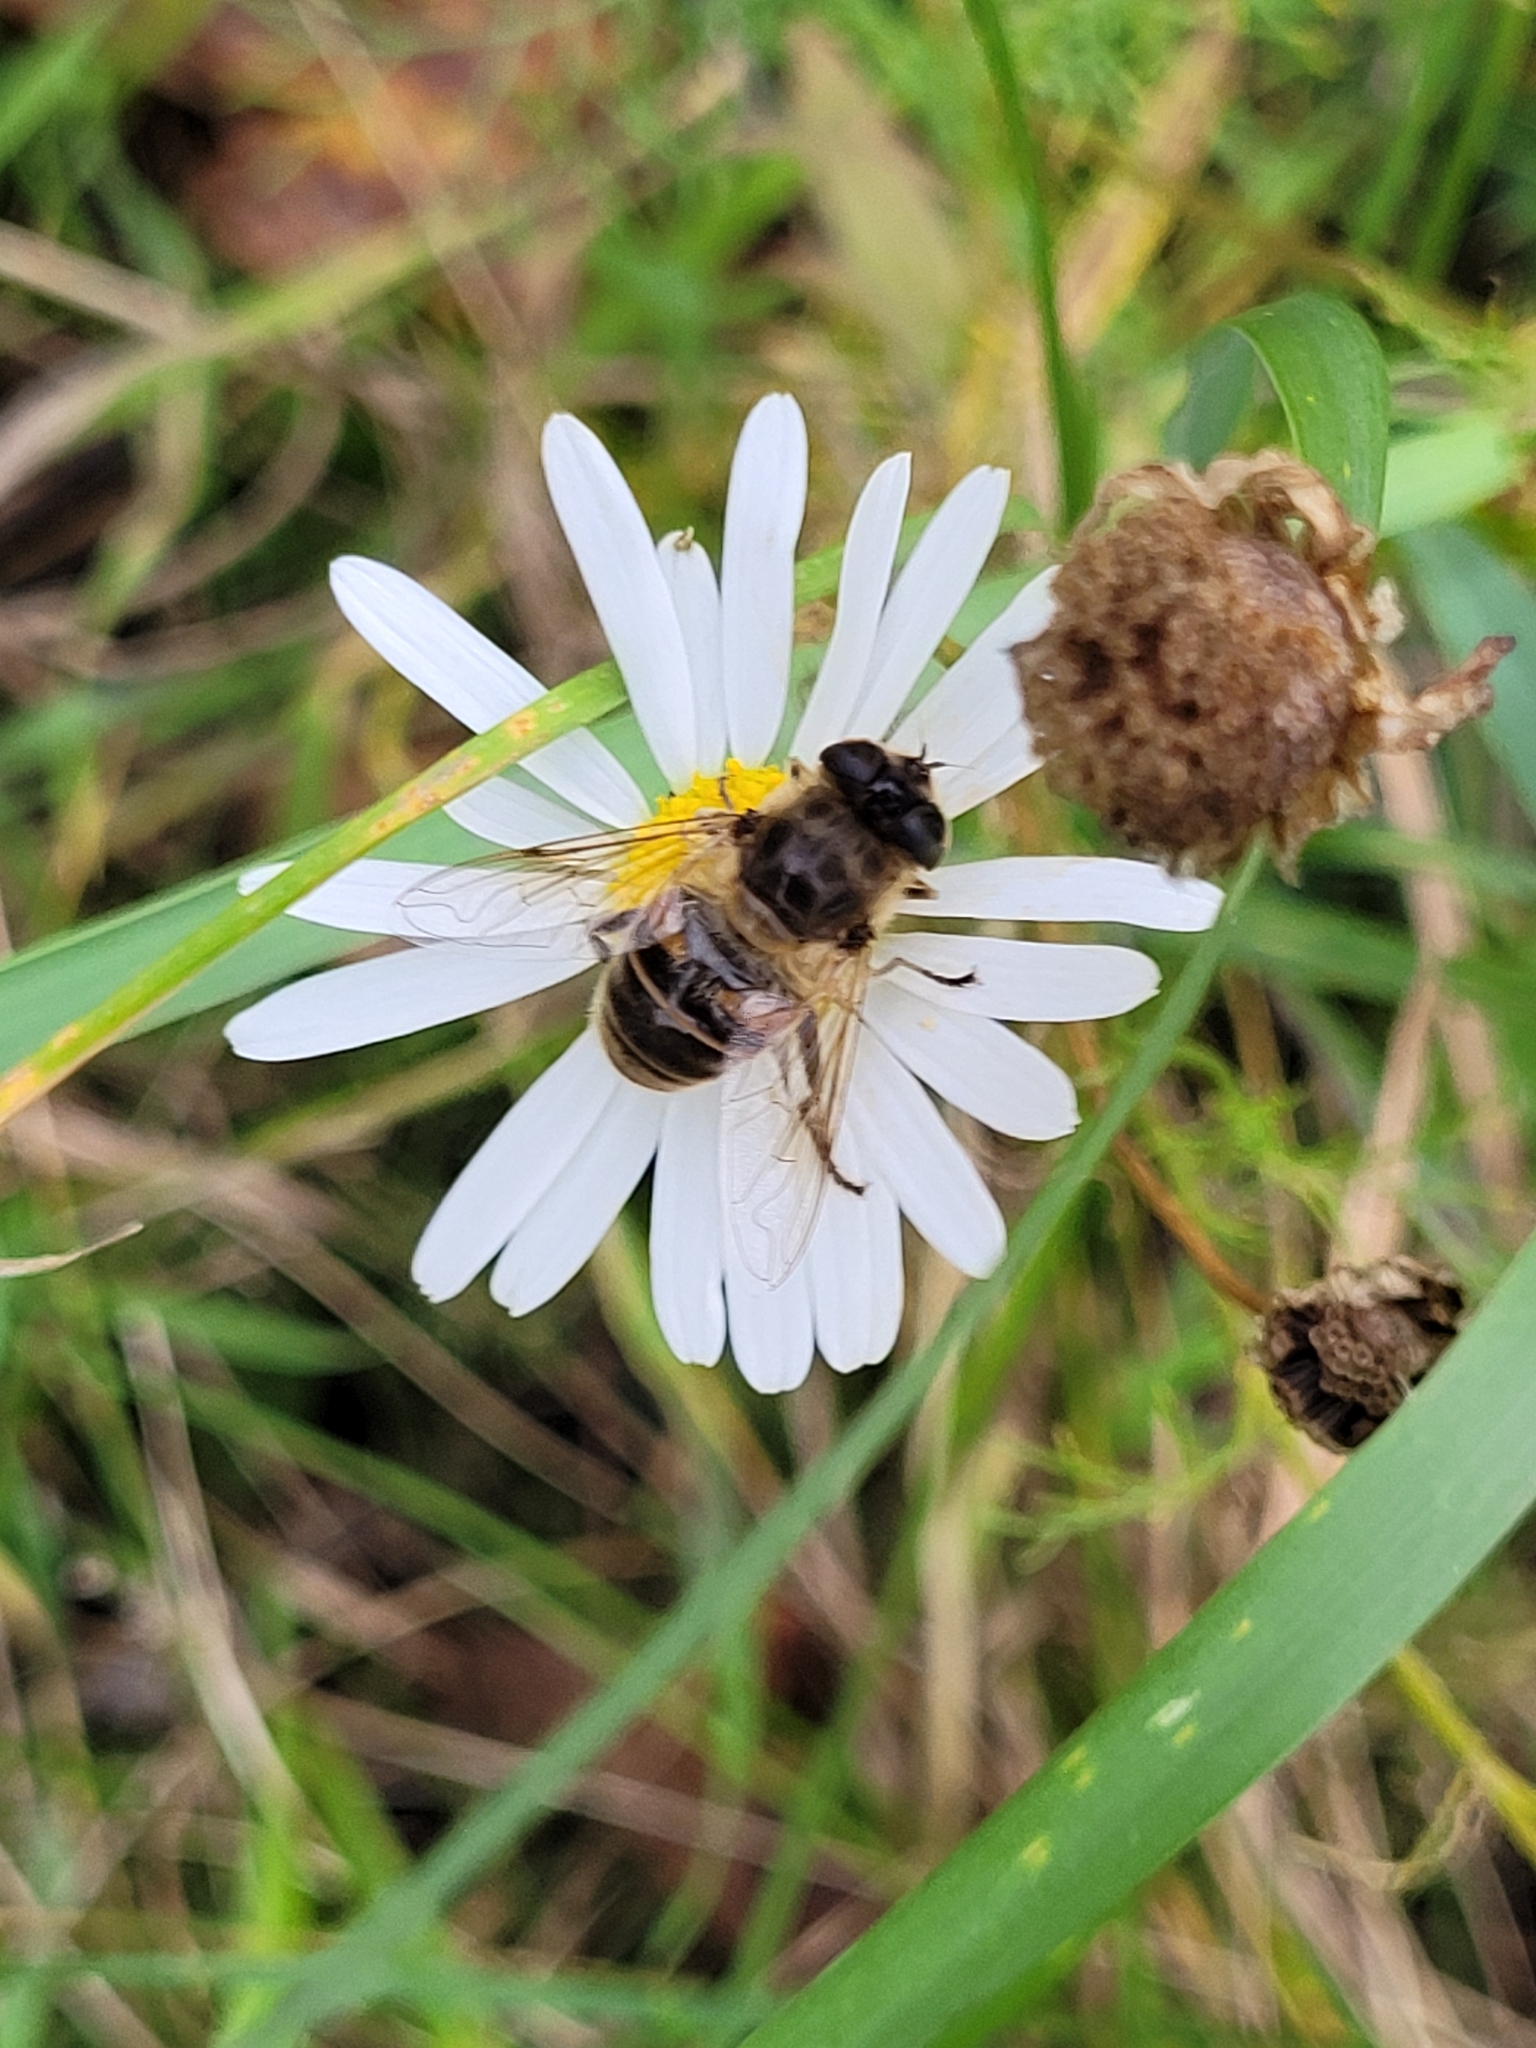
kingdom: Animalia
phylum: Arthropoda
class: Insecta
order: Diptera
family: Syrphidae
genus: Eristalis
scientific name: Eristalis tenax
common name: Drone fly
